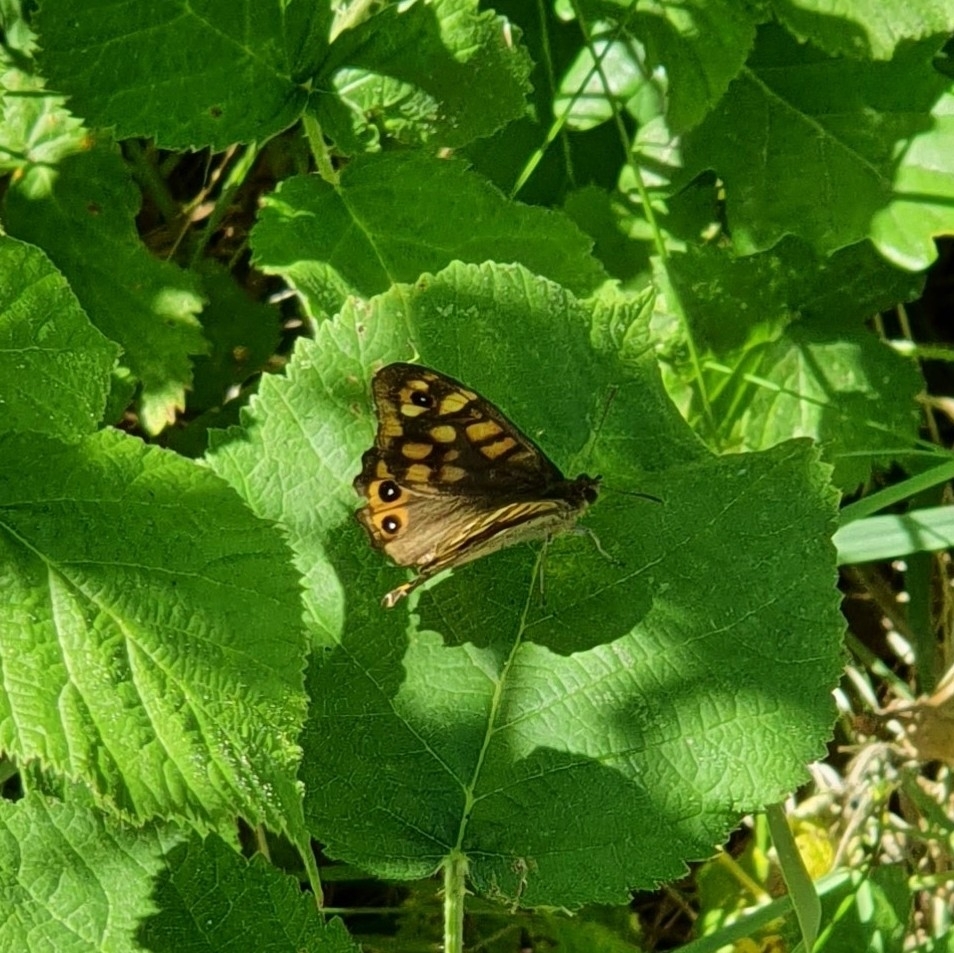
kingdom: Animalia
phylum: Arthropoda
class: Insecta
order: Lepidoptera
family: Nymphalidae
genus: Pararge
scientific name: Pararge aegeria
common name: Speckled wood
